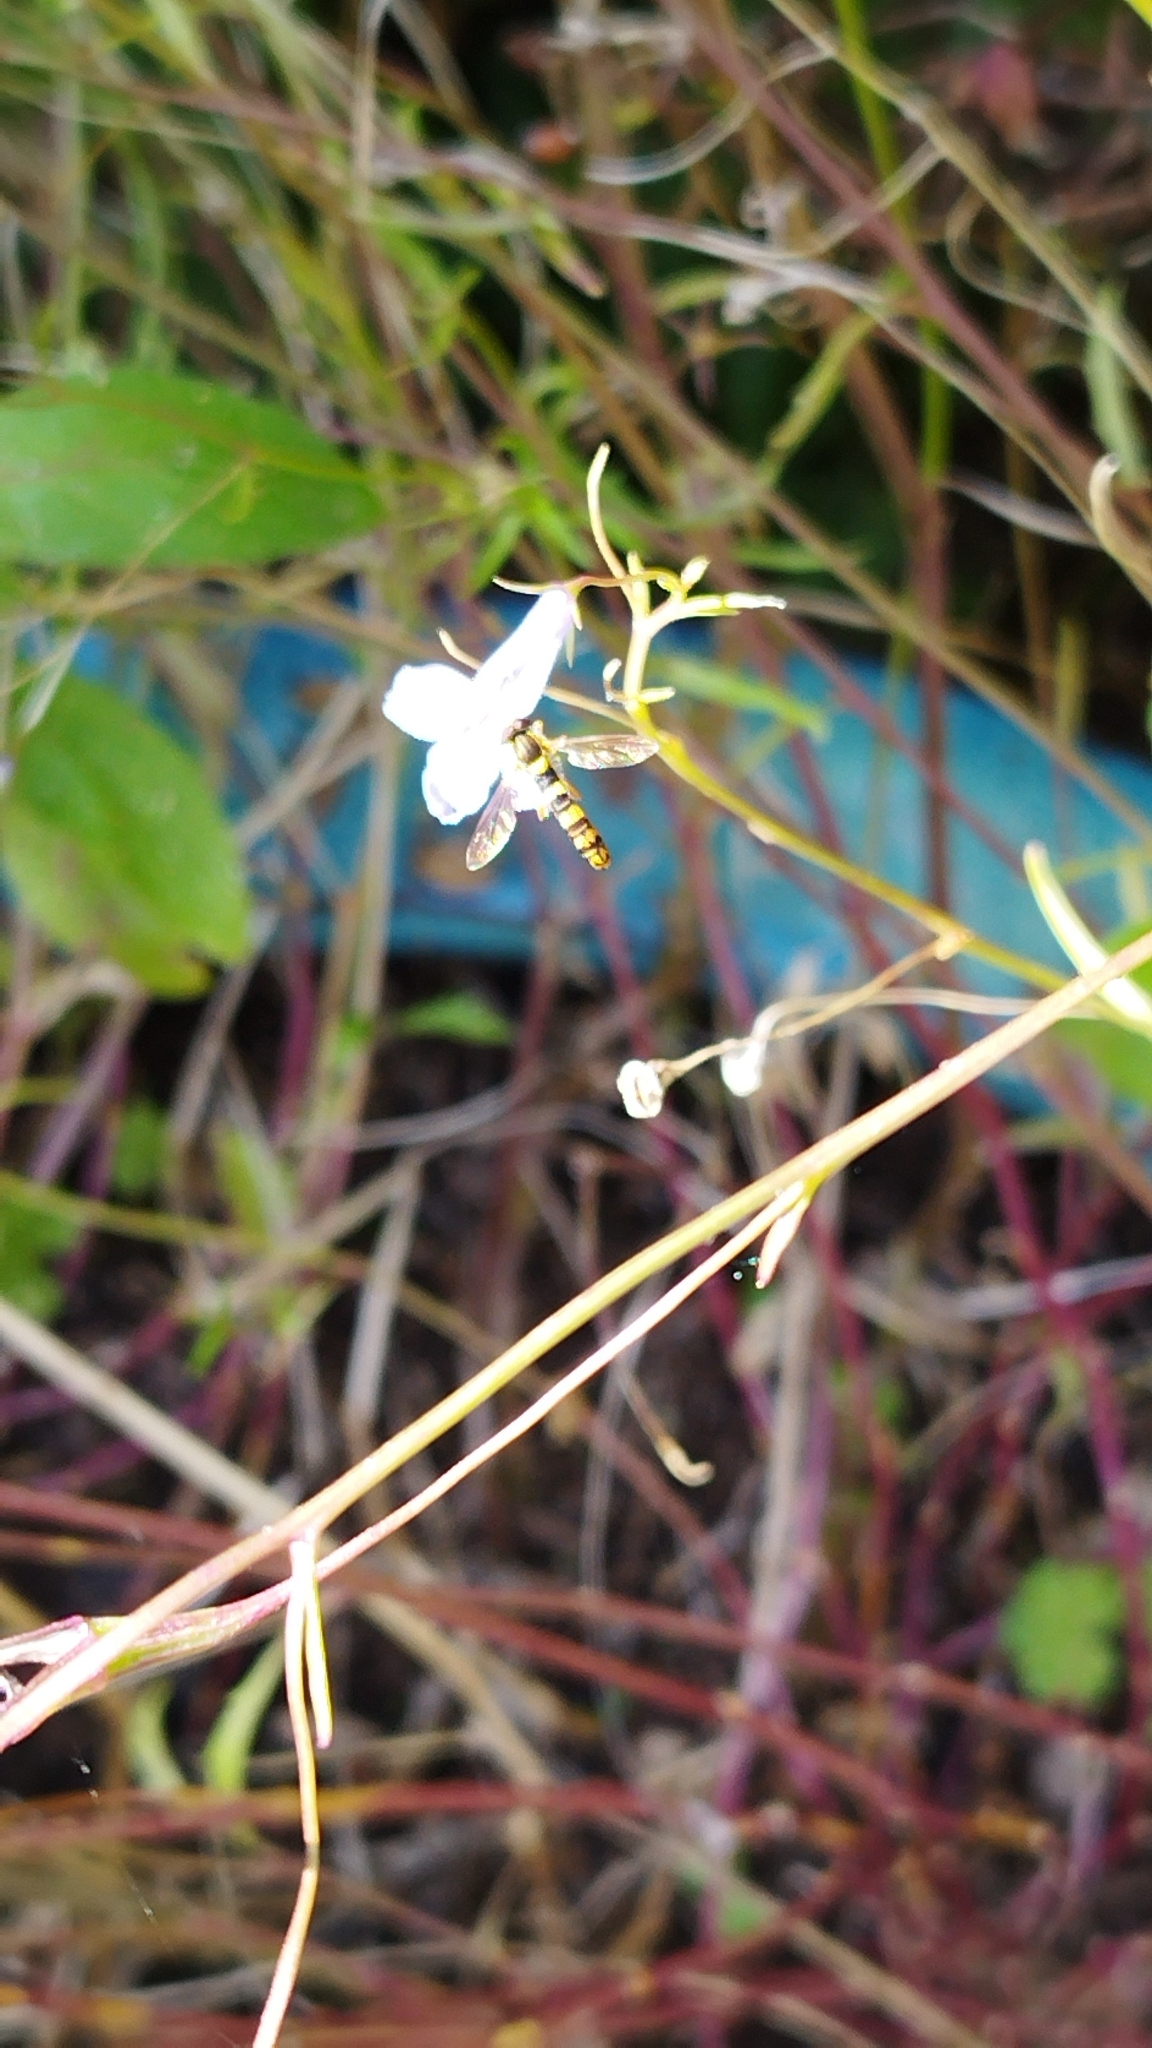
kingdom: Animalia
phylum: Arthropoda
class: Insecta
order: Diptera
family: Syrphidae
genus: Sphaerophoria
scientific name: Sphaerophoria scripta
